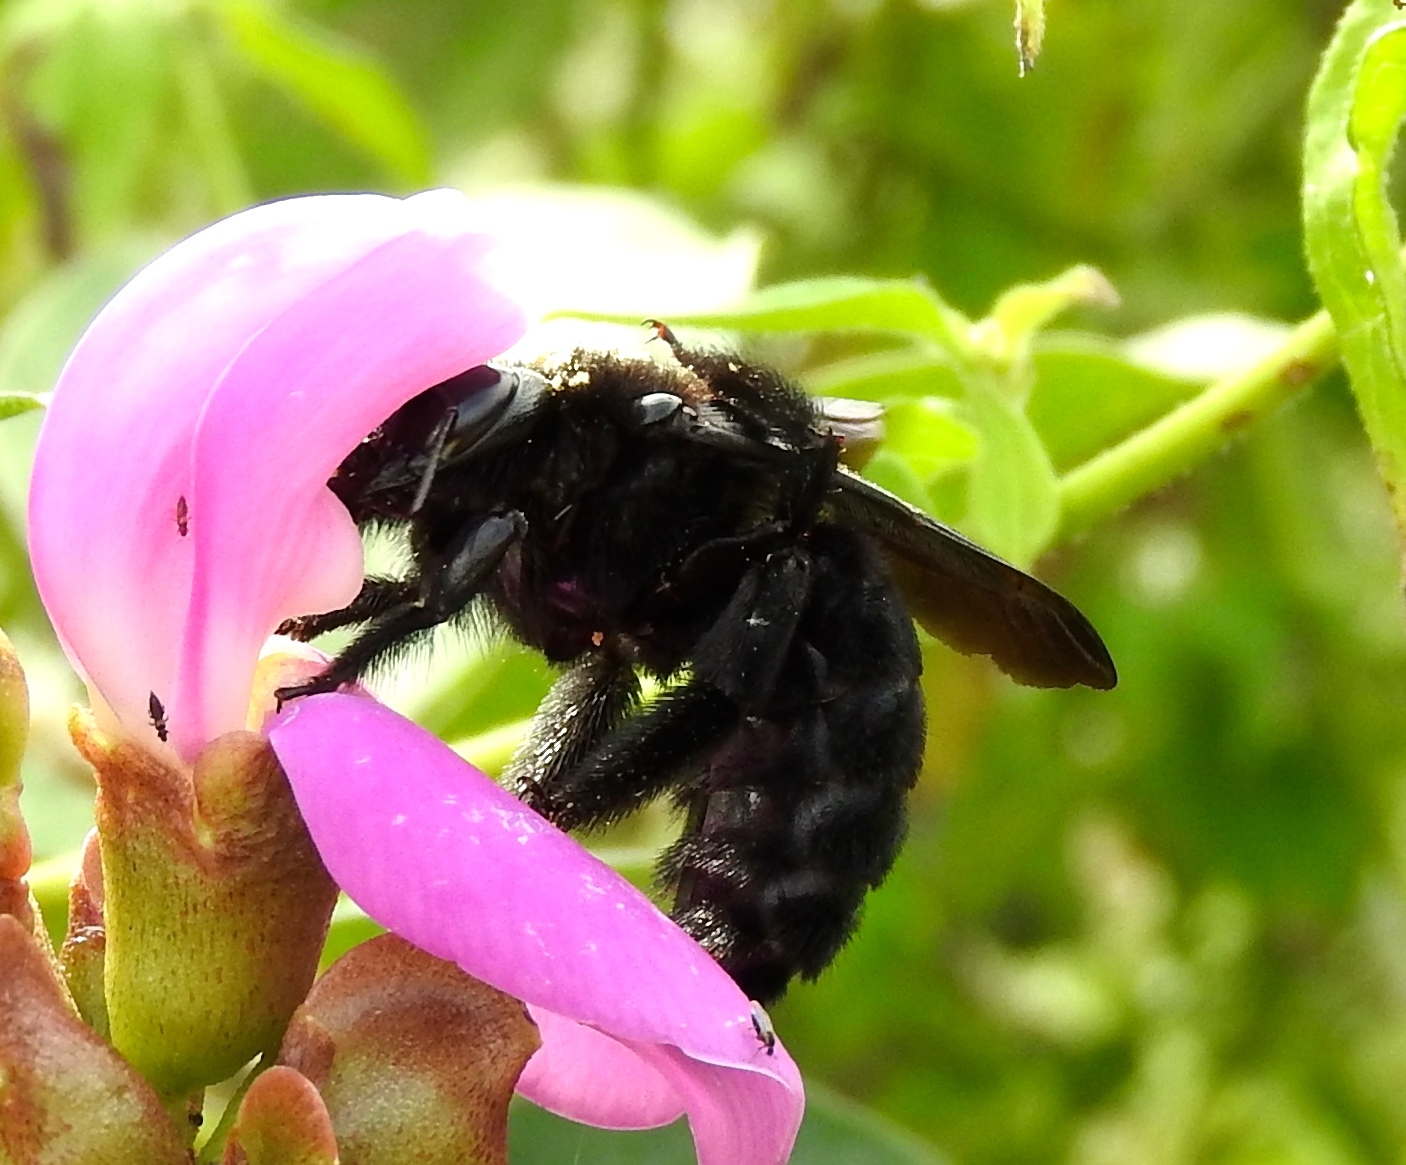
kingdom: Animalia
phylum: Arthropoda
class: Insecta
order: Hymenoptera
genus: Neoxylocopa
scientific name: Neoxylocopa
